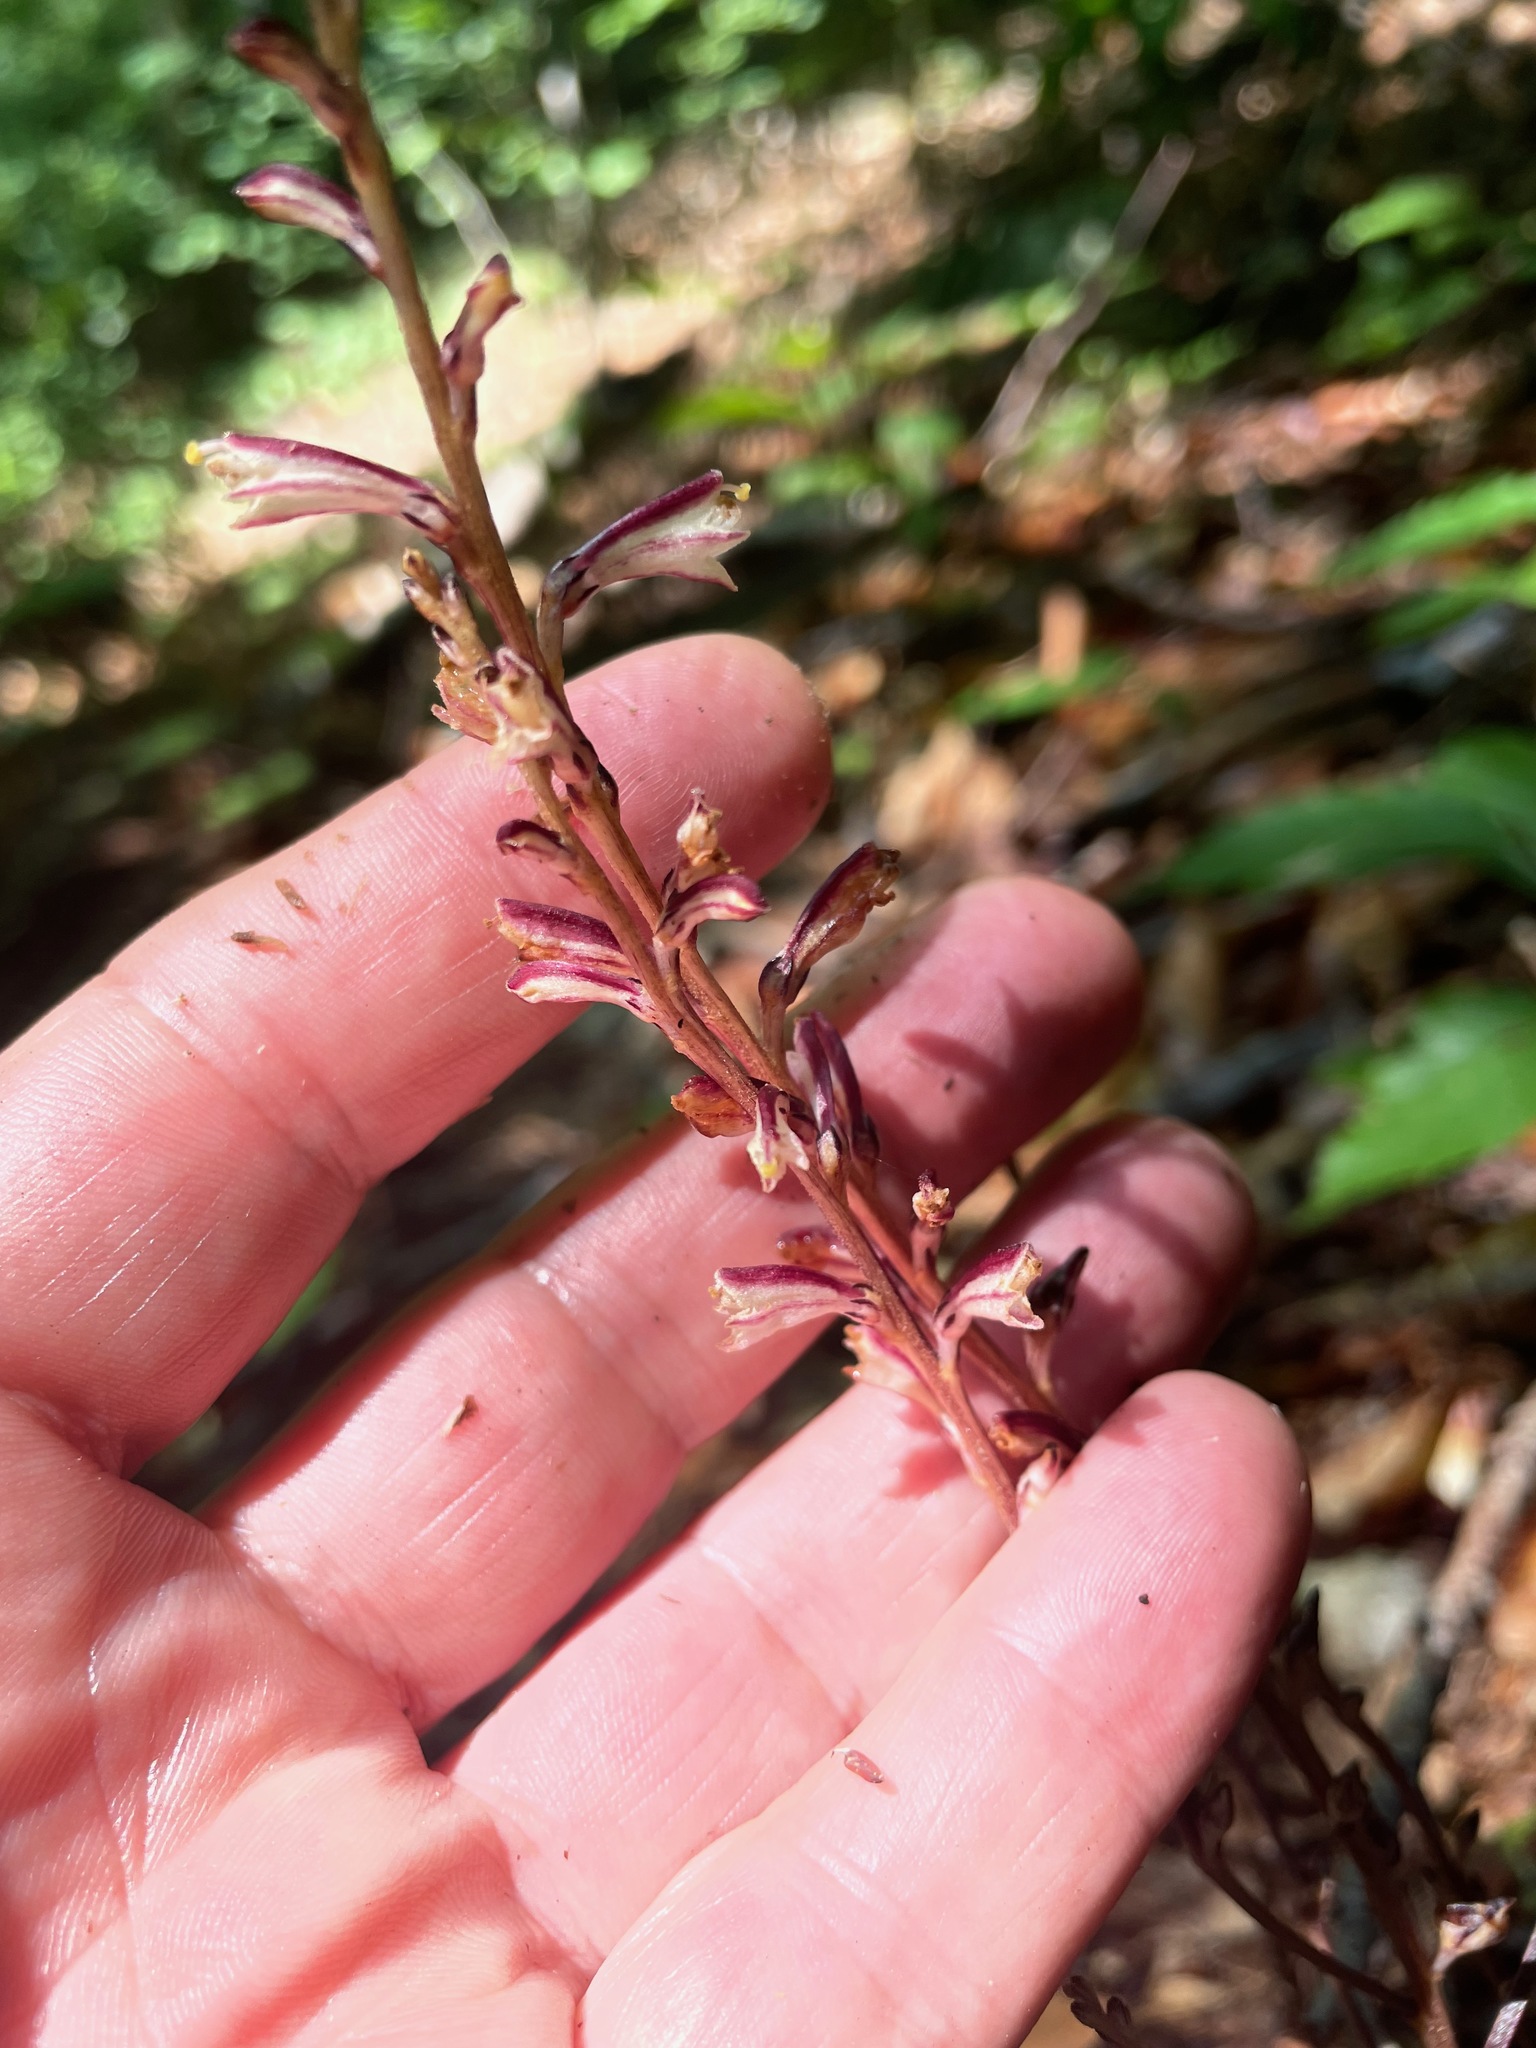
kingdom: Plantae
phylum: Tracheophyta
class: Magnoliopsida
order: Lamiales
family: Orobanchaceae
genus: Epifagus
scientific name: Epifagus virginiana
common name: Beechdrops
